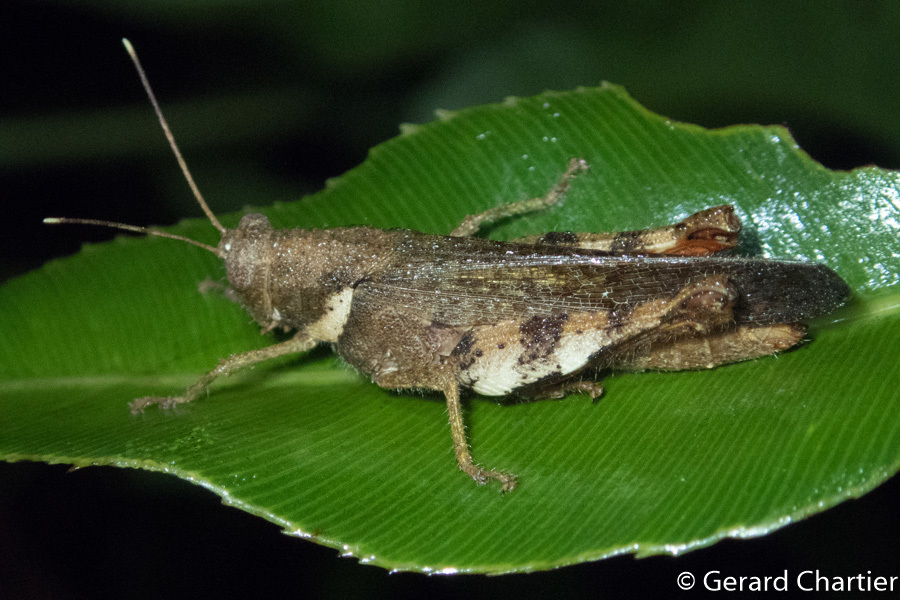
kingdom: Animalia
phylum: Arthropoda
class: Insecta
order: Orthoptera
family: Acrididae
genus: Apalacris
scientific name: Apalacris varicornis
